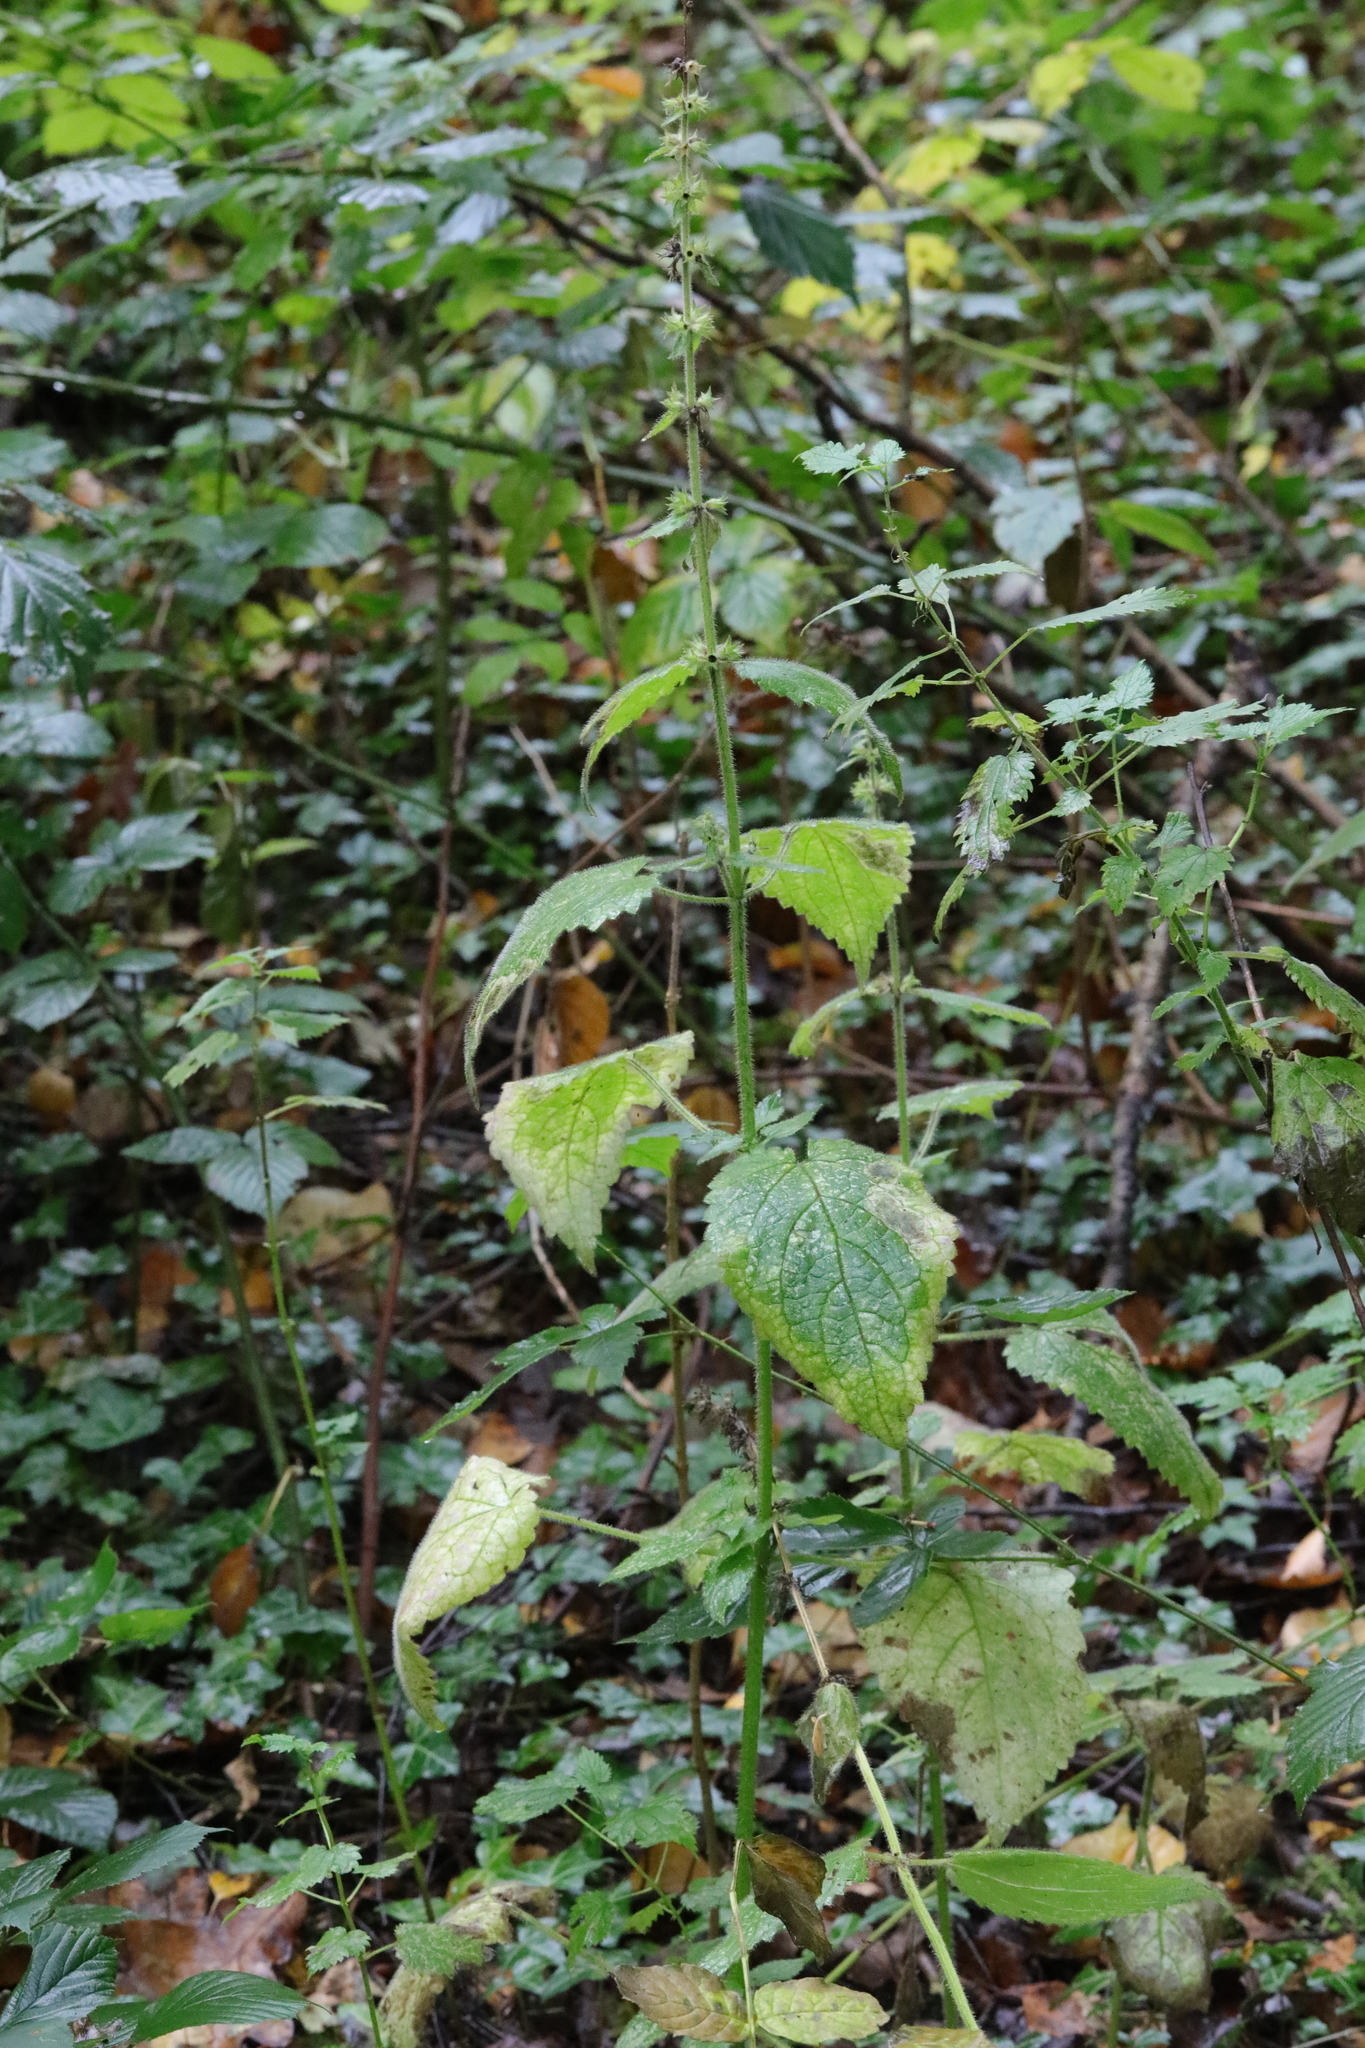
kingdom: Plantae
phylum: Tracheophyta
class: Magnoliopsida
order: Lamiales
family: Lamiaceae
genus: Stachys
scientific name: Stachys sylvatica
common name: Hedge woundwort
